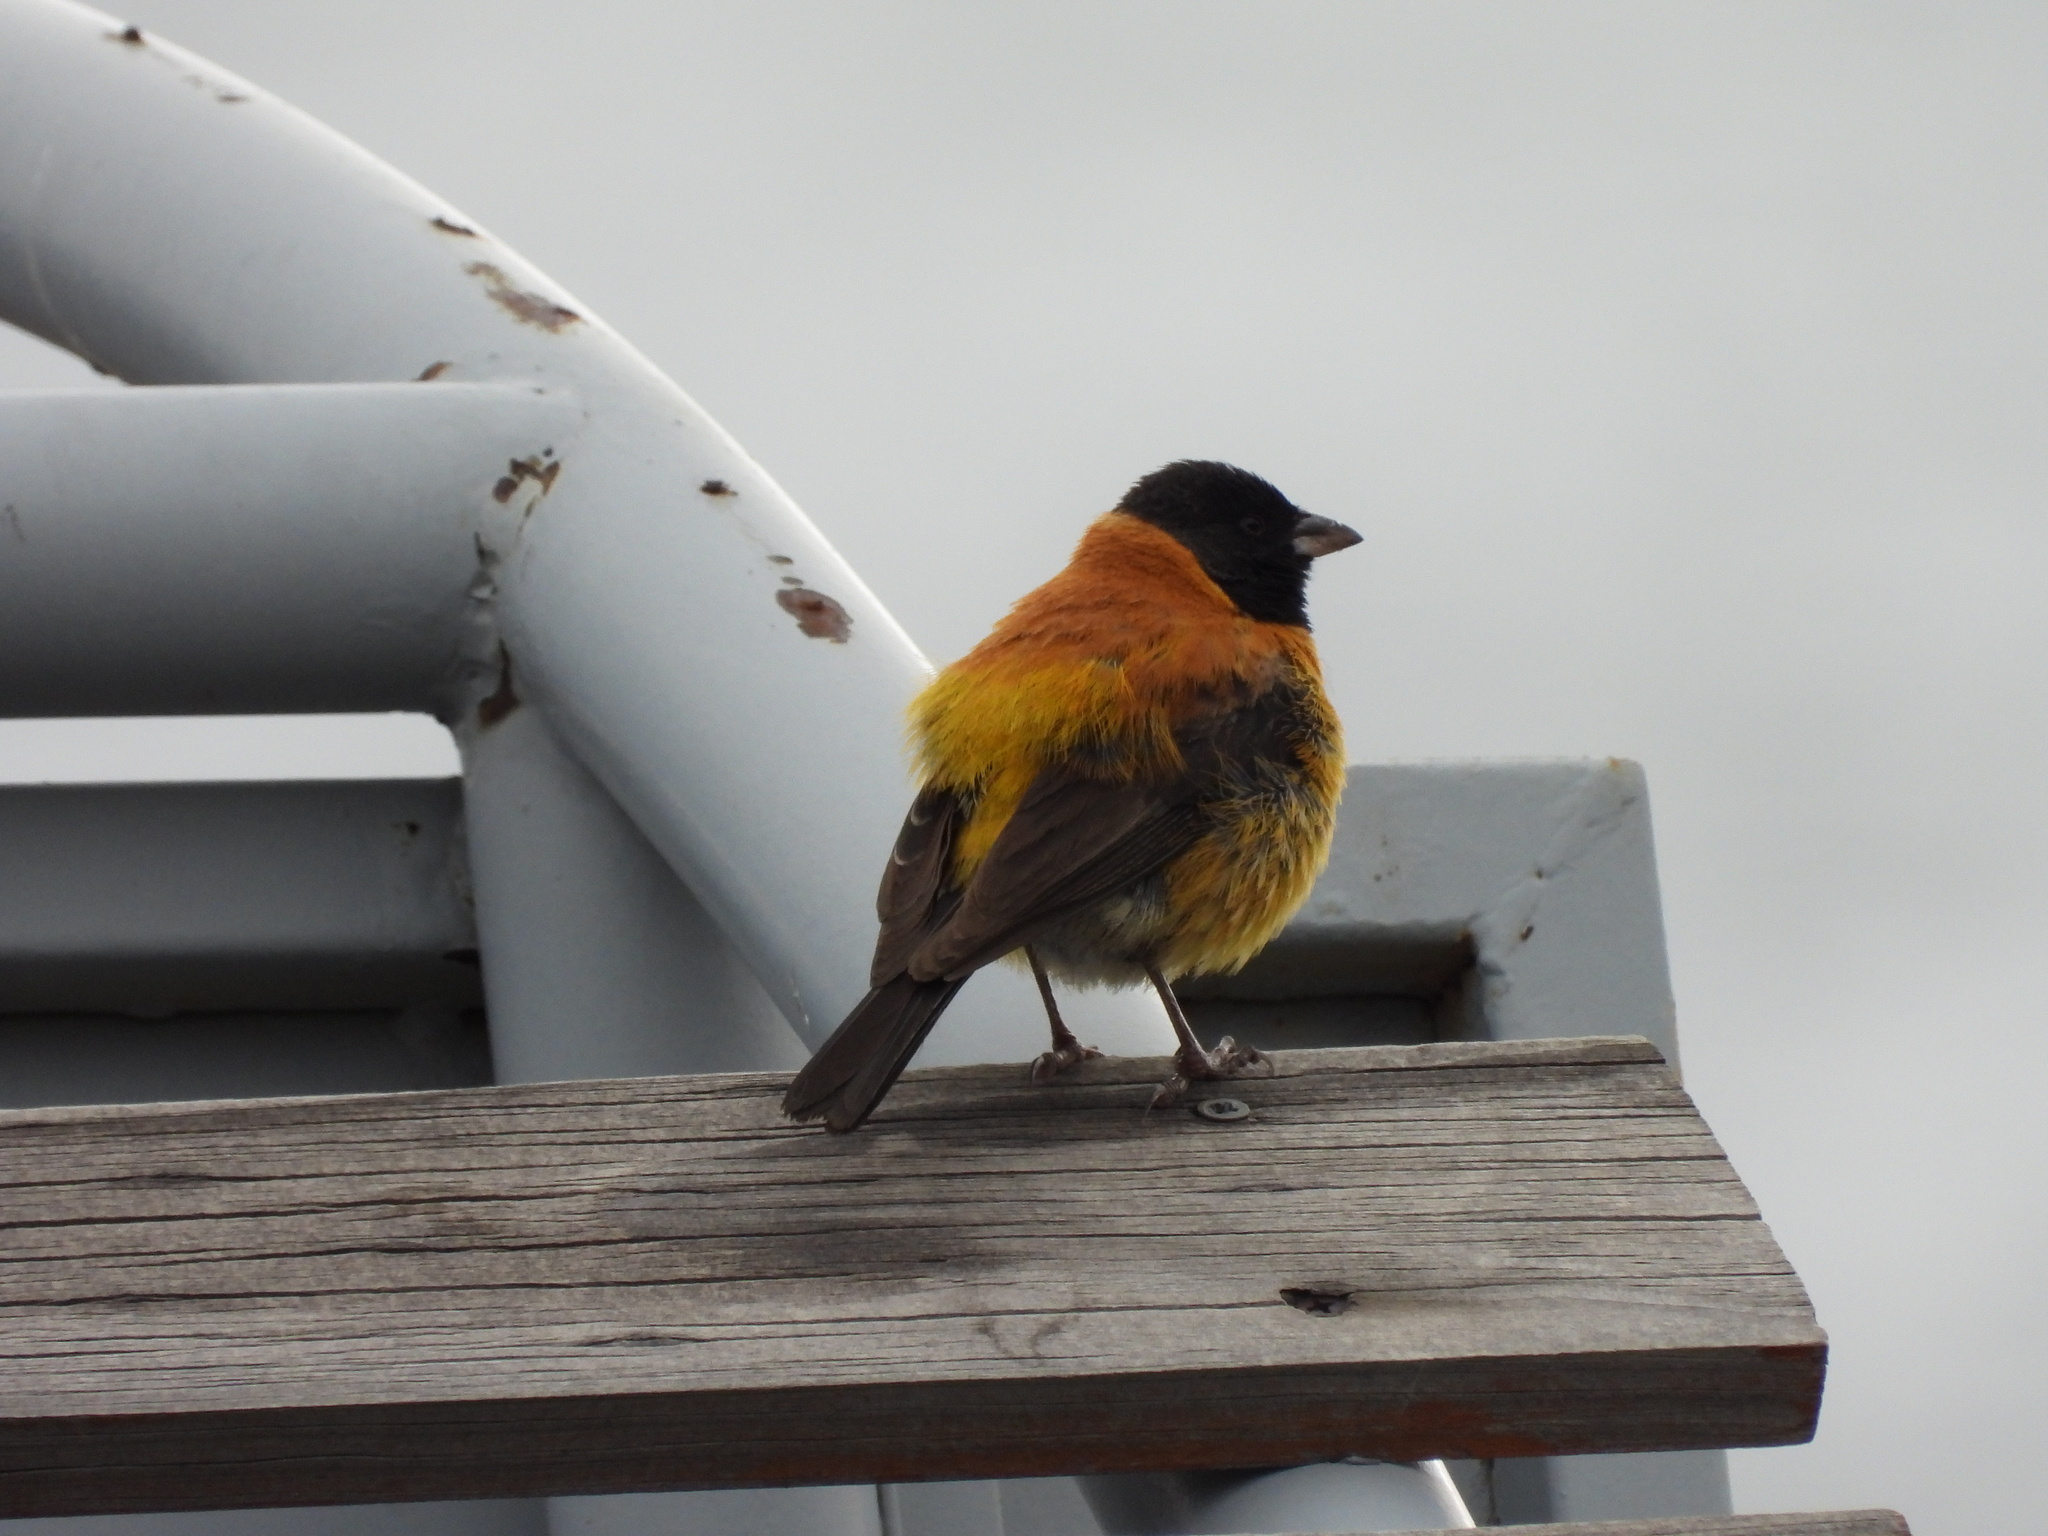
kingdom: Animalia
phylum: Chordata
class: Aves
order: Passeriformes
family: Thraupidae
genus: Phrygilus
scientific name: Phrygilus atriceps
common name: Black-hooded sierra finch
